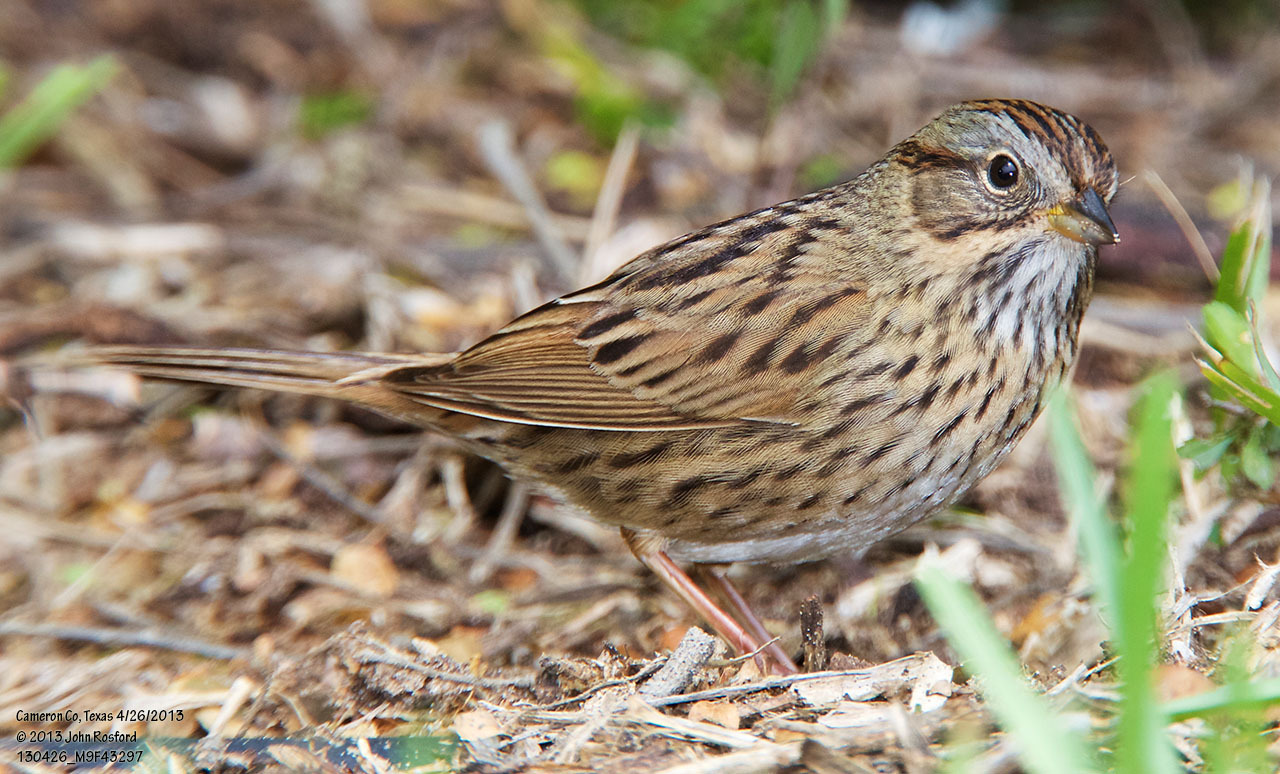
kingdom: Animalia
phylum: Chordata
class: Aves
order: Passeriformes
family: Passerellidae
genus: Melospiza
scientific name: Melospiza lincolnii
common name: Lincoln's sparrow
